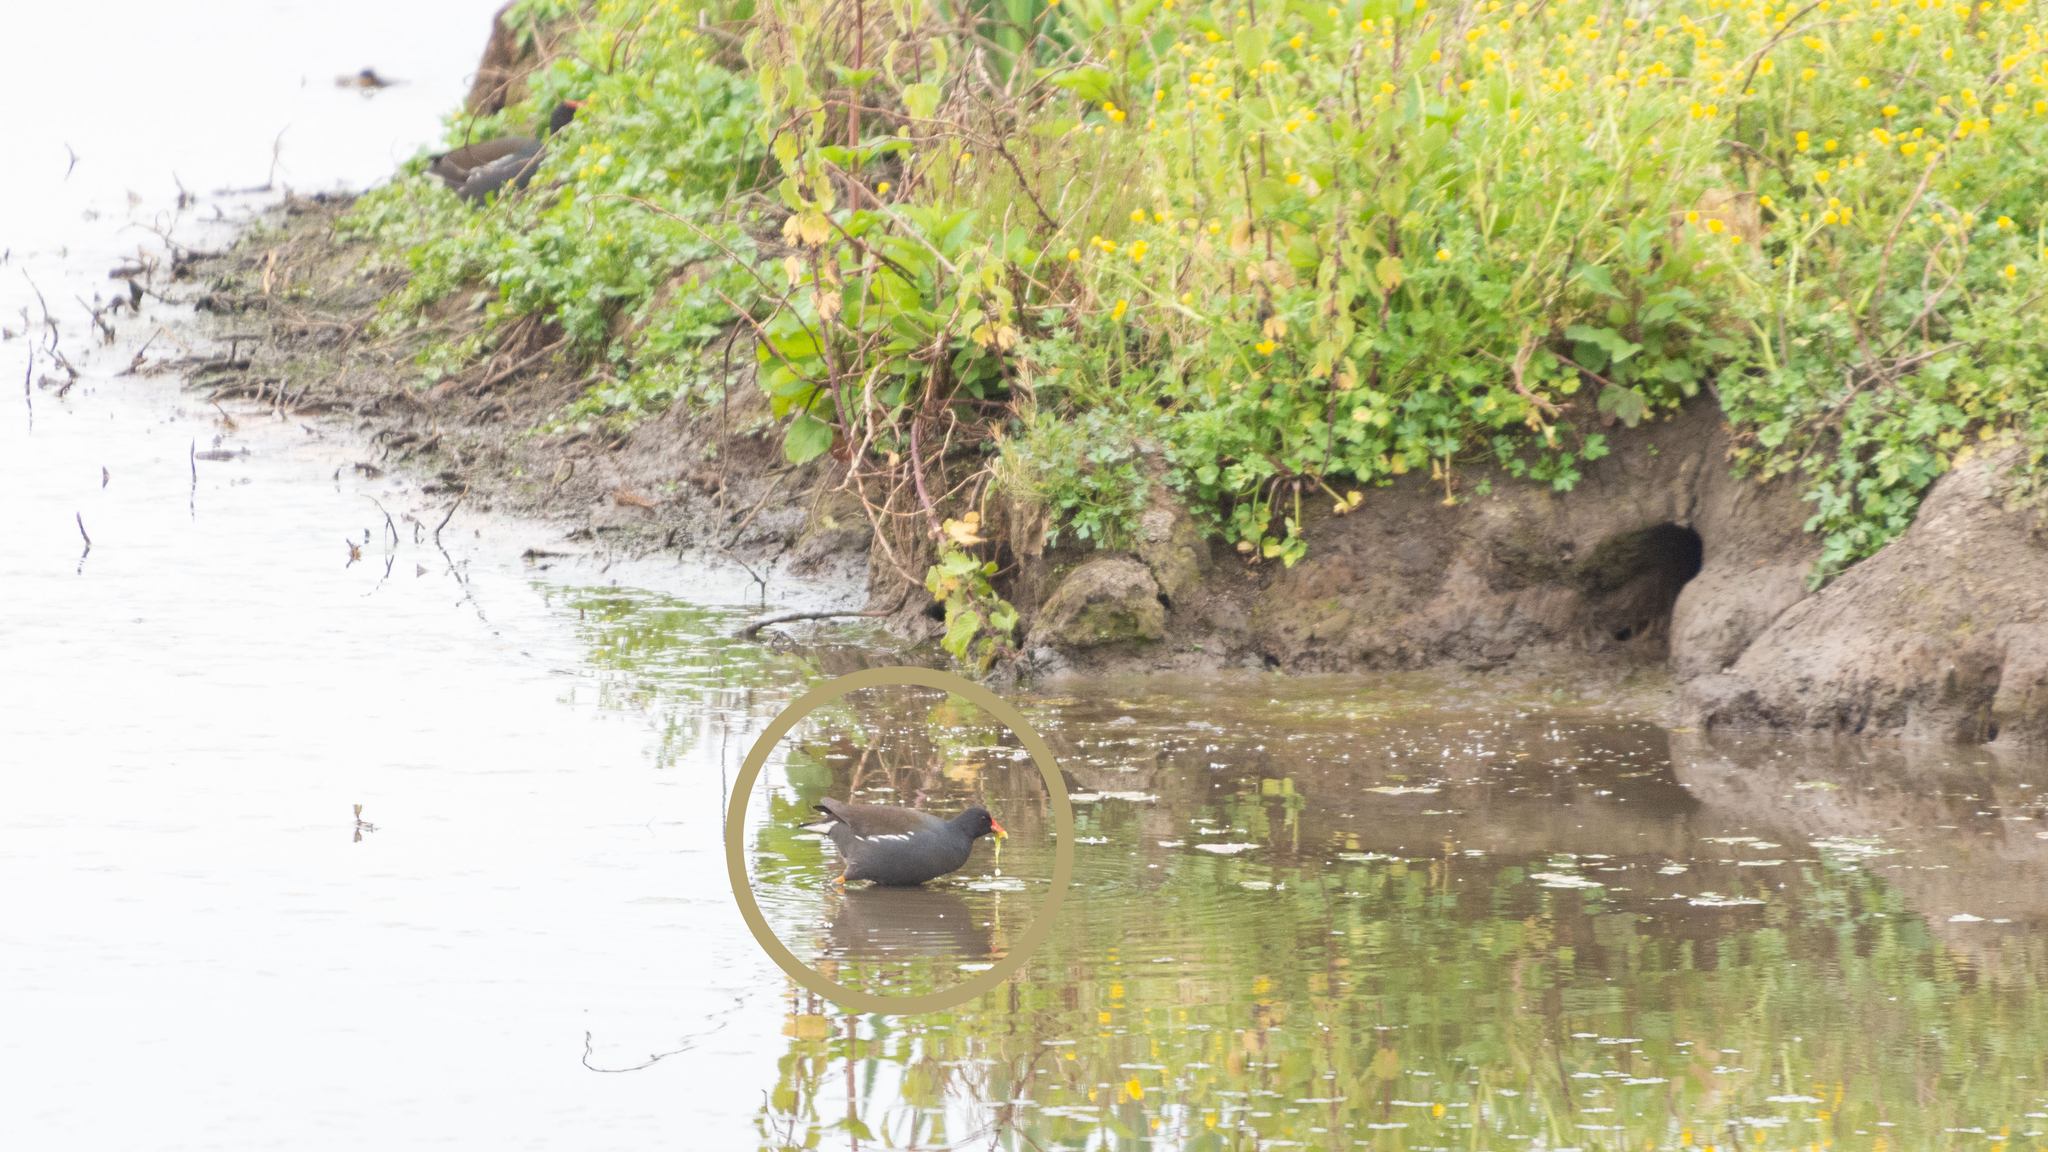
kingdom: Animalia
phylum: Chordata
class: Aves
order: Gruiformes
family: Rallidae
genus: Gallinula
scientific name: Gallinula chloropus
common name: Common moorhen
